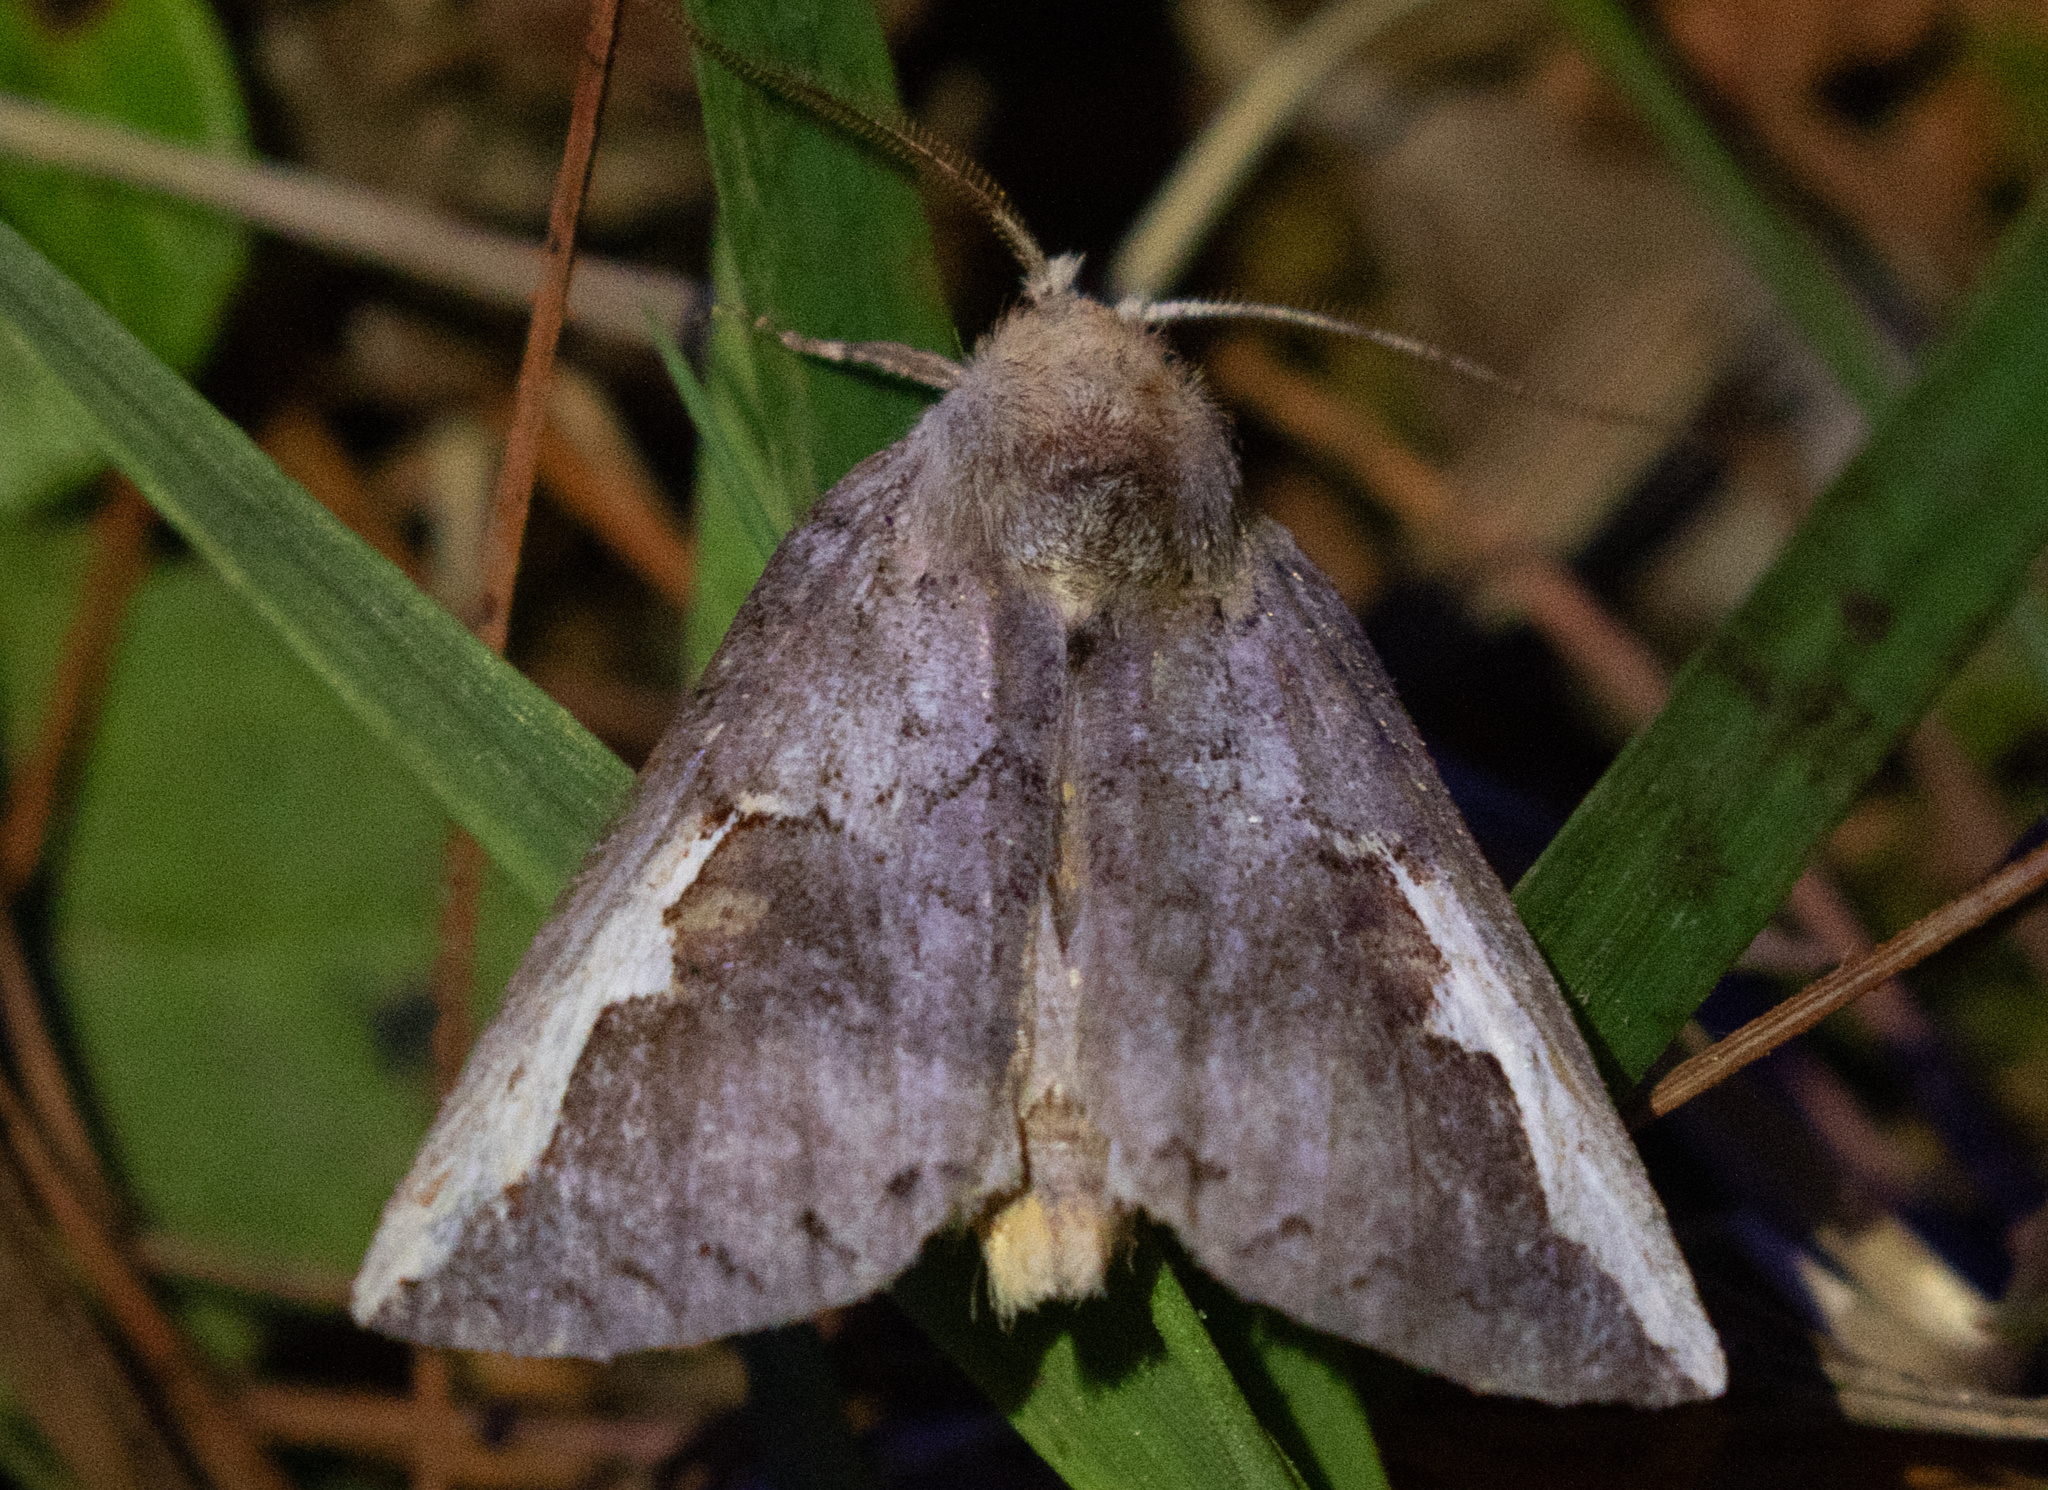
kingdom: Animalia
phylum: Arthropoda
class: Insecta
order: Lepidoptera
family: Notodontidae
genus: Symmerista
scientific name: Symmerista albifrons
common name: White-headed prominent
